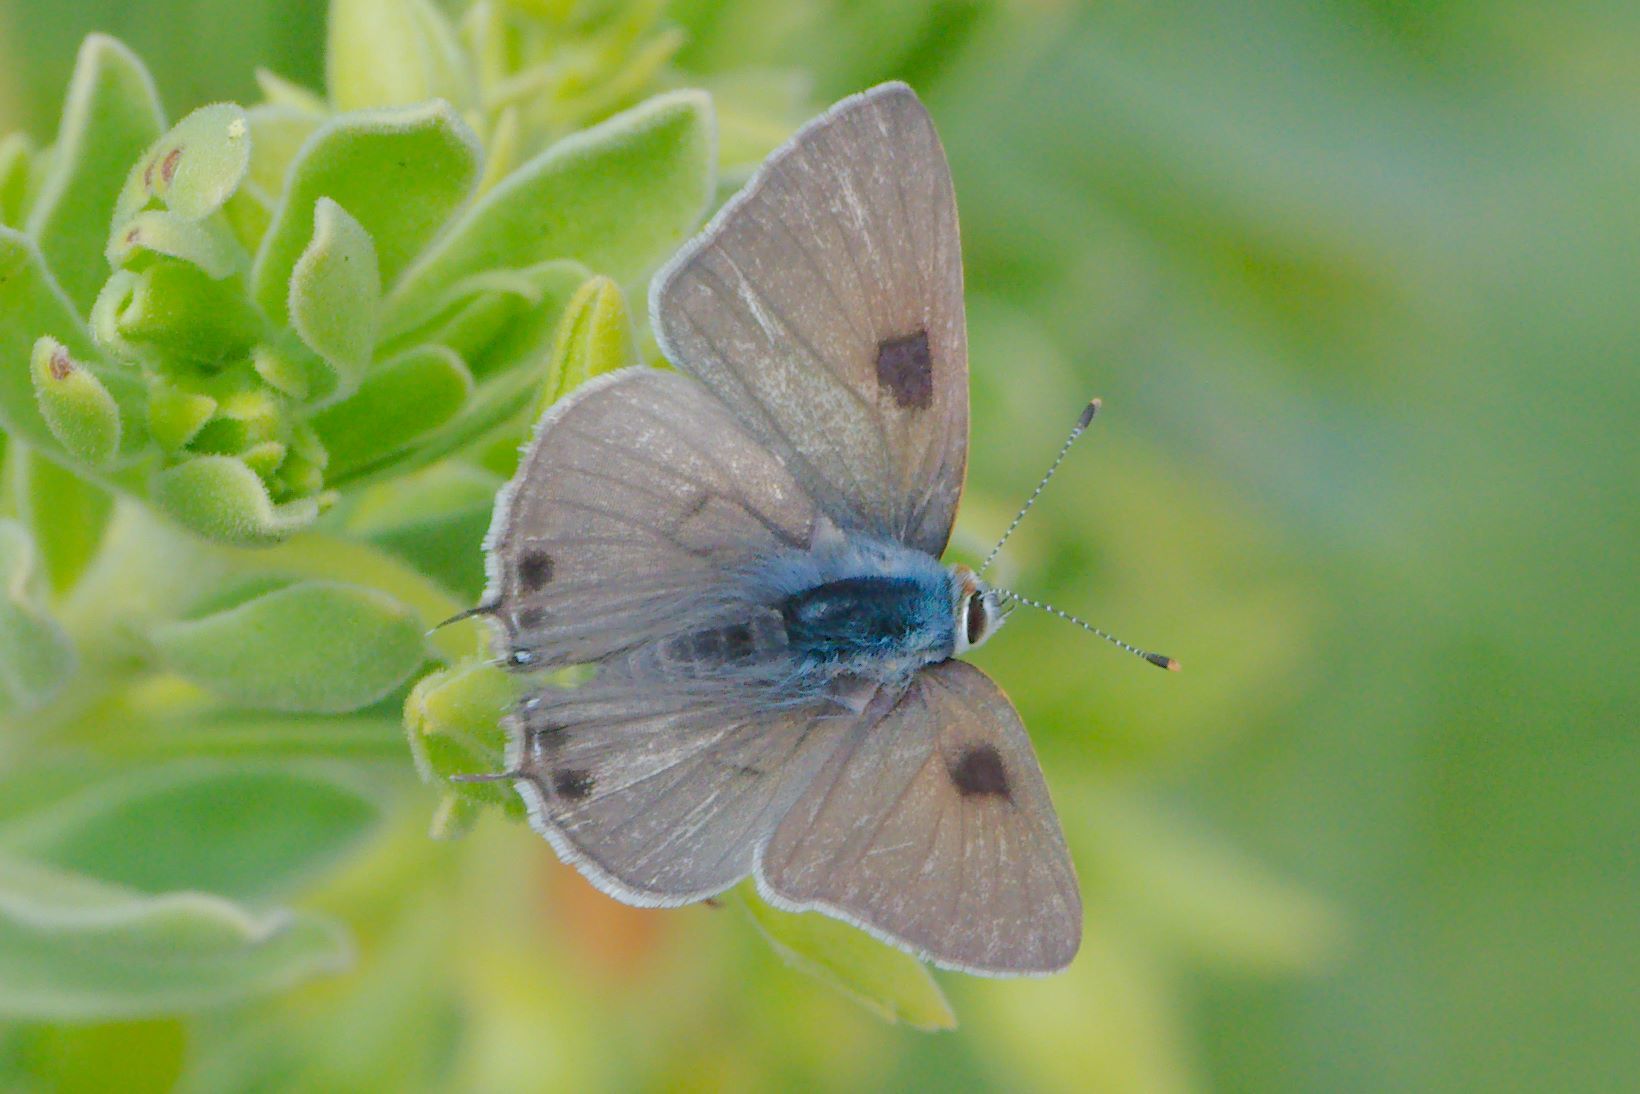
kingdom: Animalia
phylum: Arthropoda
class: Insecta
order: Lepidoptera
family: Lycaenidae
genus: Callicista
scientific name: Callicista columella
